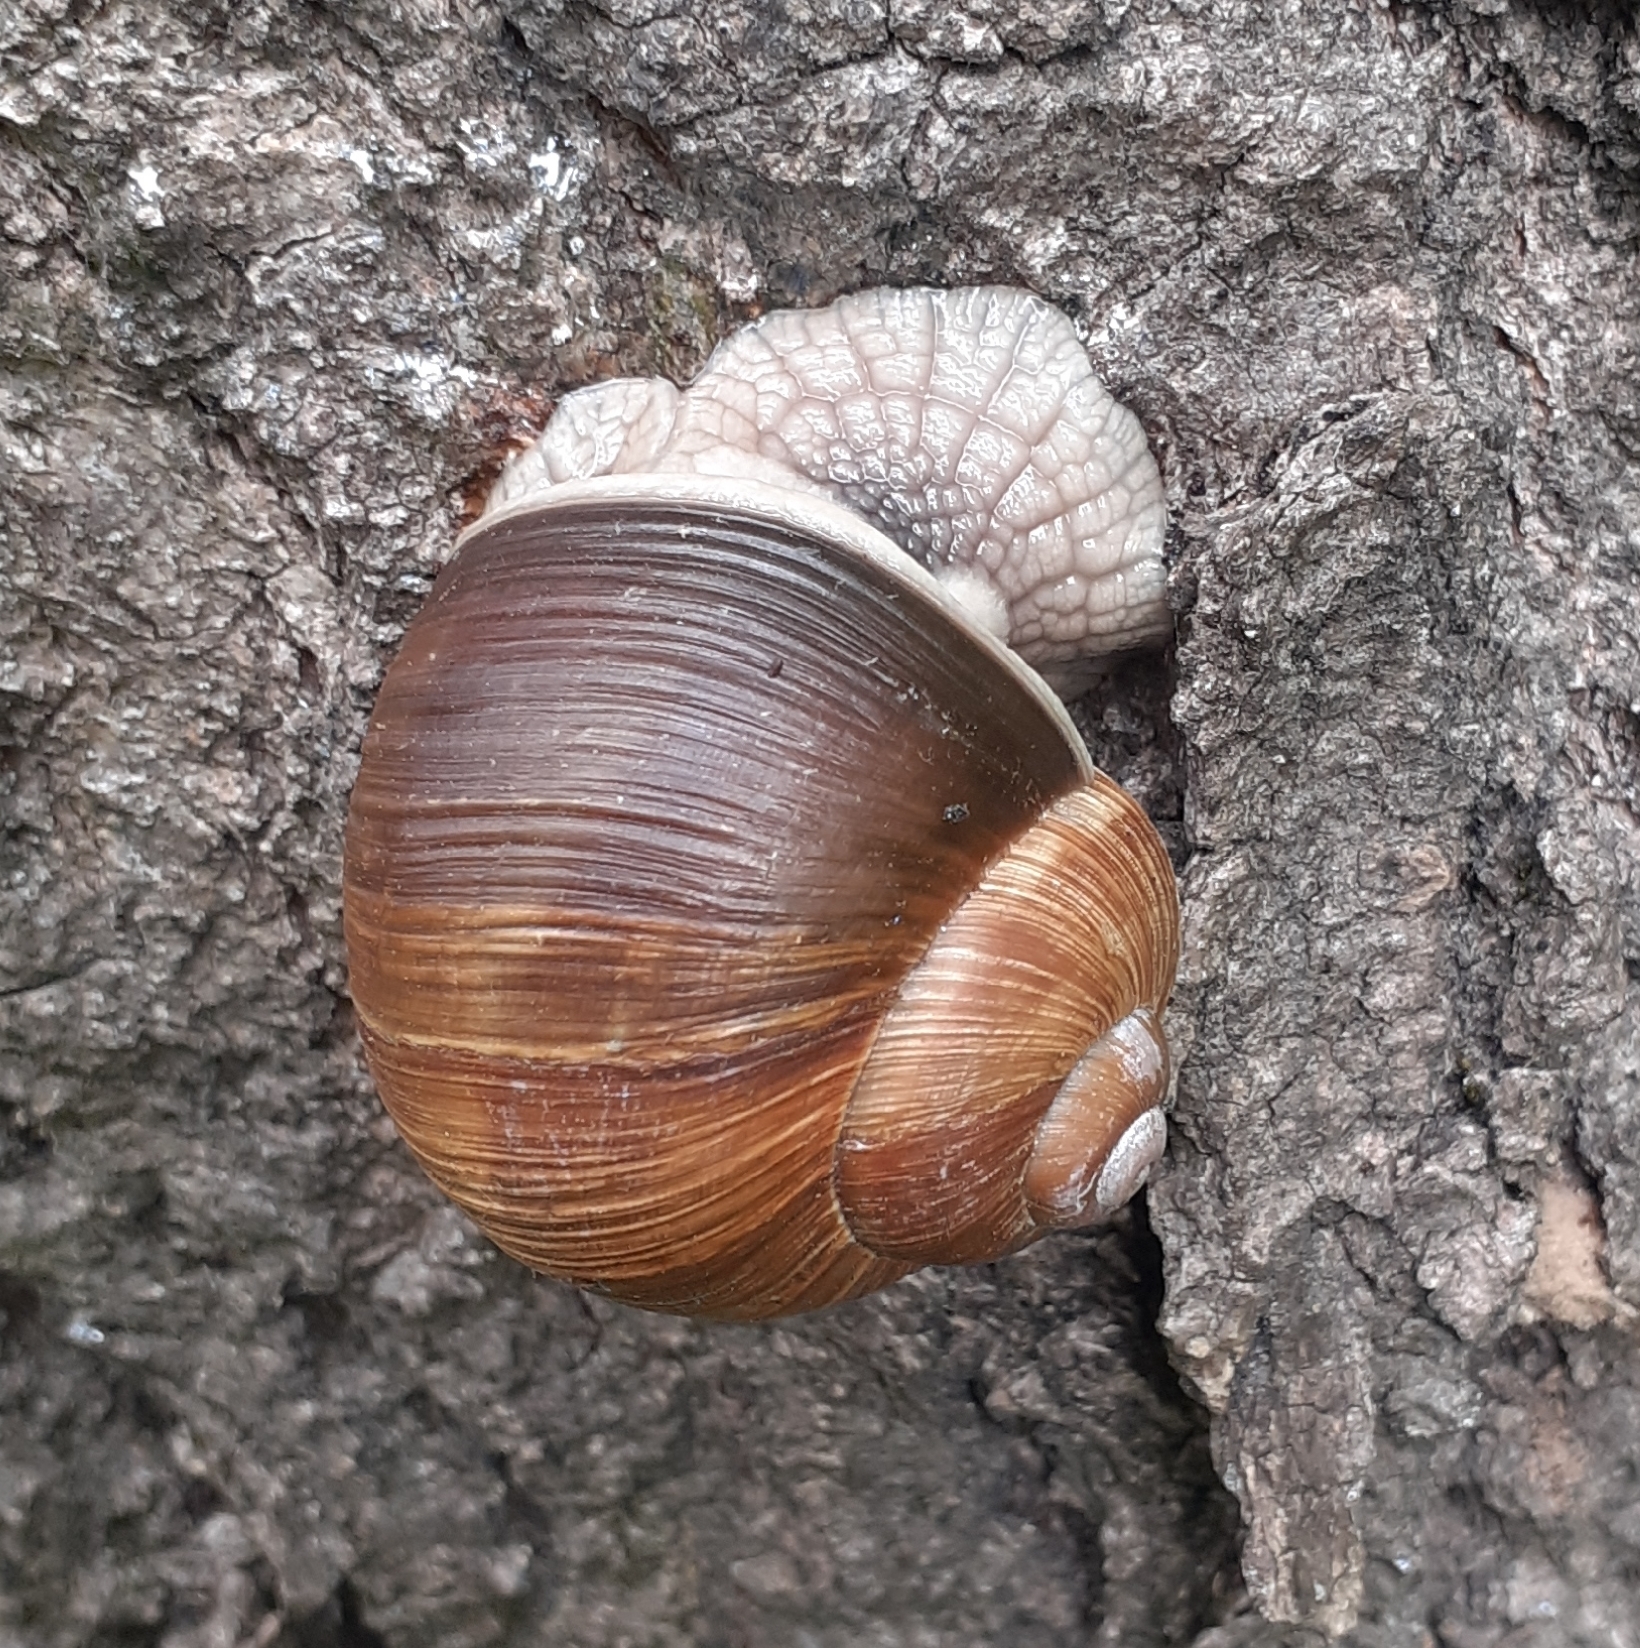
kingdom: Animalia
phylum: Mollusca
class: Gastropoda
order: Stylommatophora
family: Helicidae
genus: Helix
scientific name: Helix pomatia
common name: Roman snail
